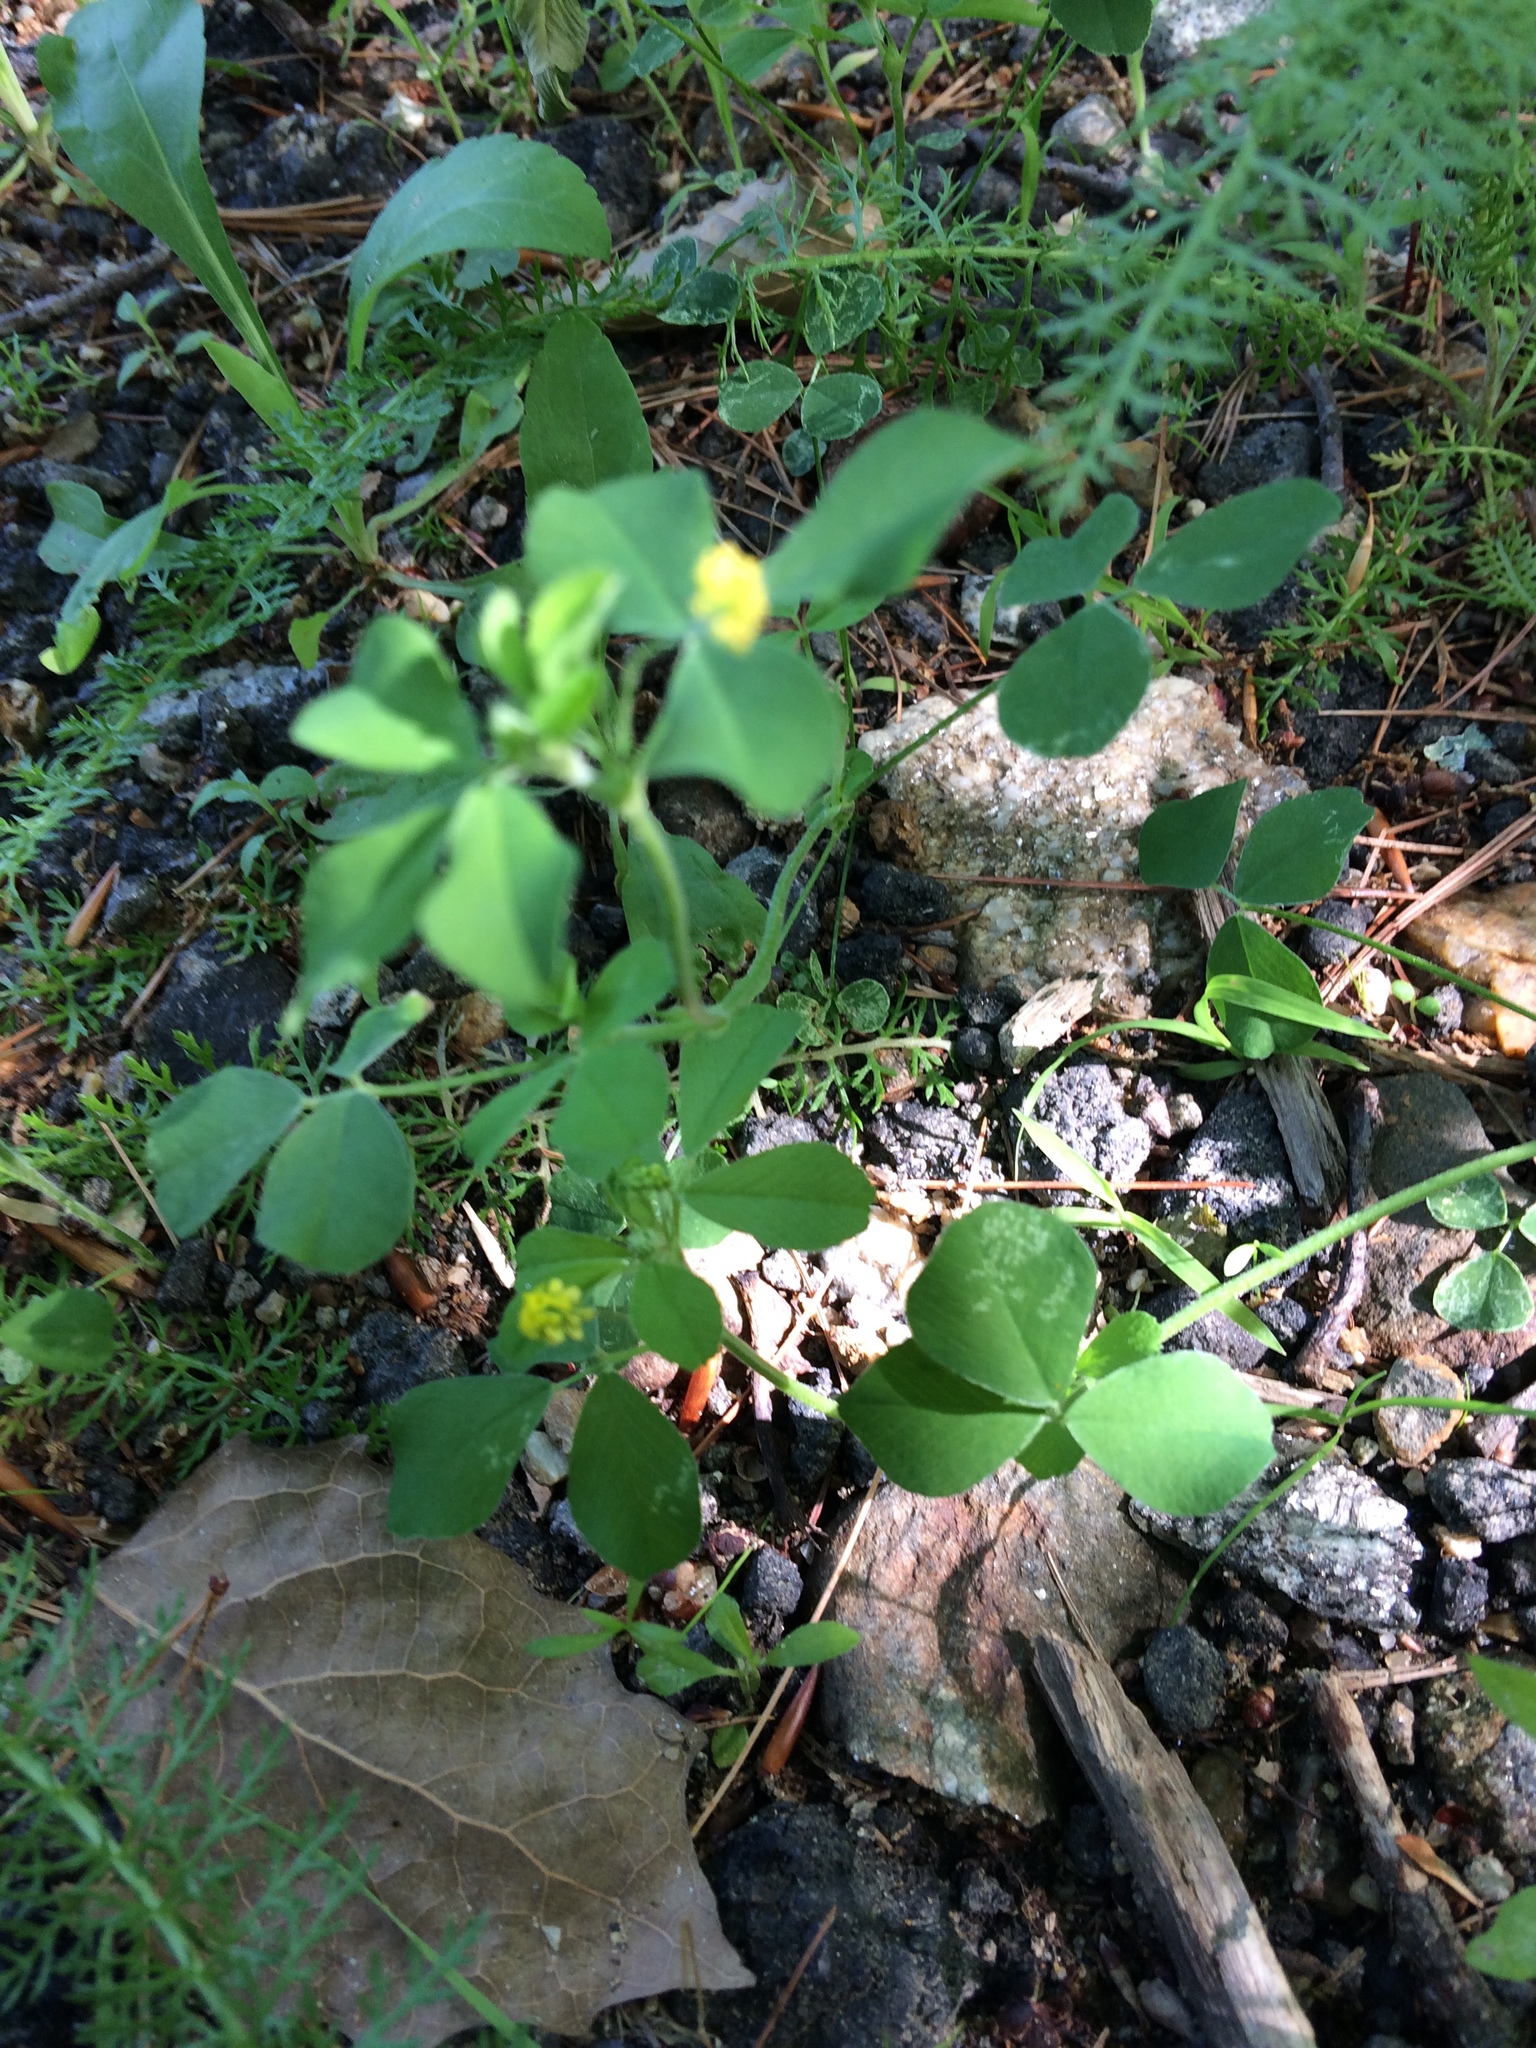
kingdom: Plantae
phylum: Tracheophyta
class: Magnoliopsida
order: Fabales
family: Fabaceae
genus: Medicago
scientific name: Medicago lupulina
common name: Black medick
